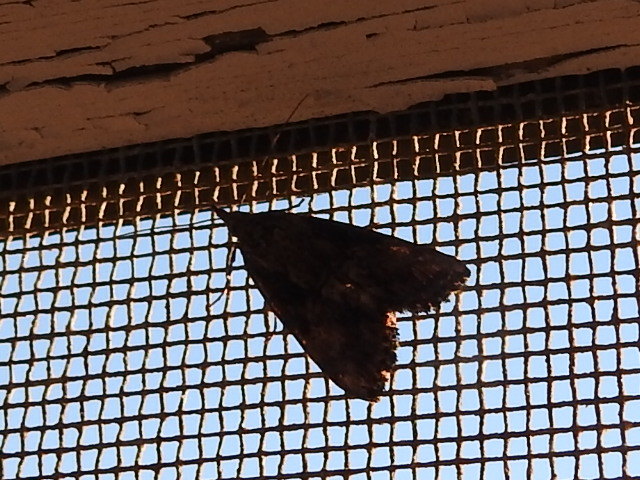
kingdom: Animalia
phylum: Arthropoda
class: Insecta
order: Lepidoptera
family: Erebidae
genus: Hypena
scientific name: Hypena scabra
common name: Green cloverworm
